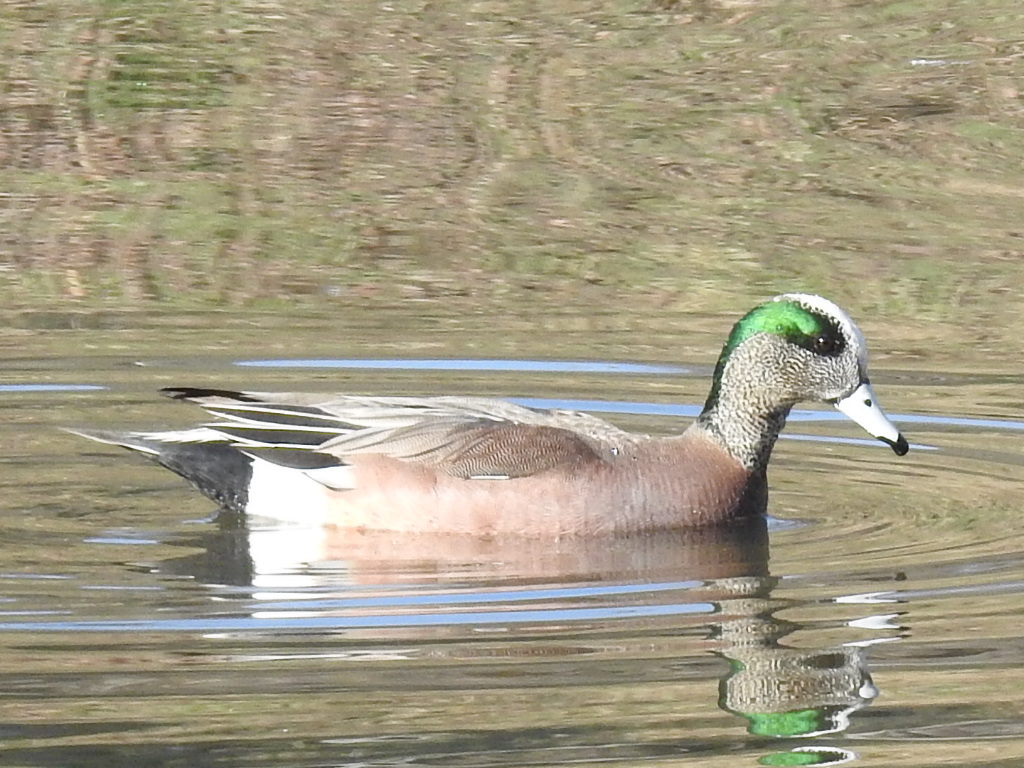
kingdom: Animalia
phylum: Chordata
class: Aves
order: Anseriformes
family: Anatidae
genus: Mareca
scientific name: Mareca americana
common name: American wigeon
